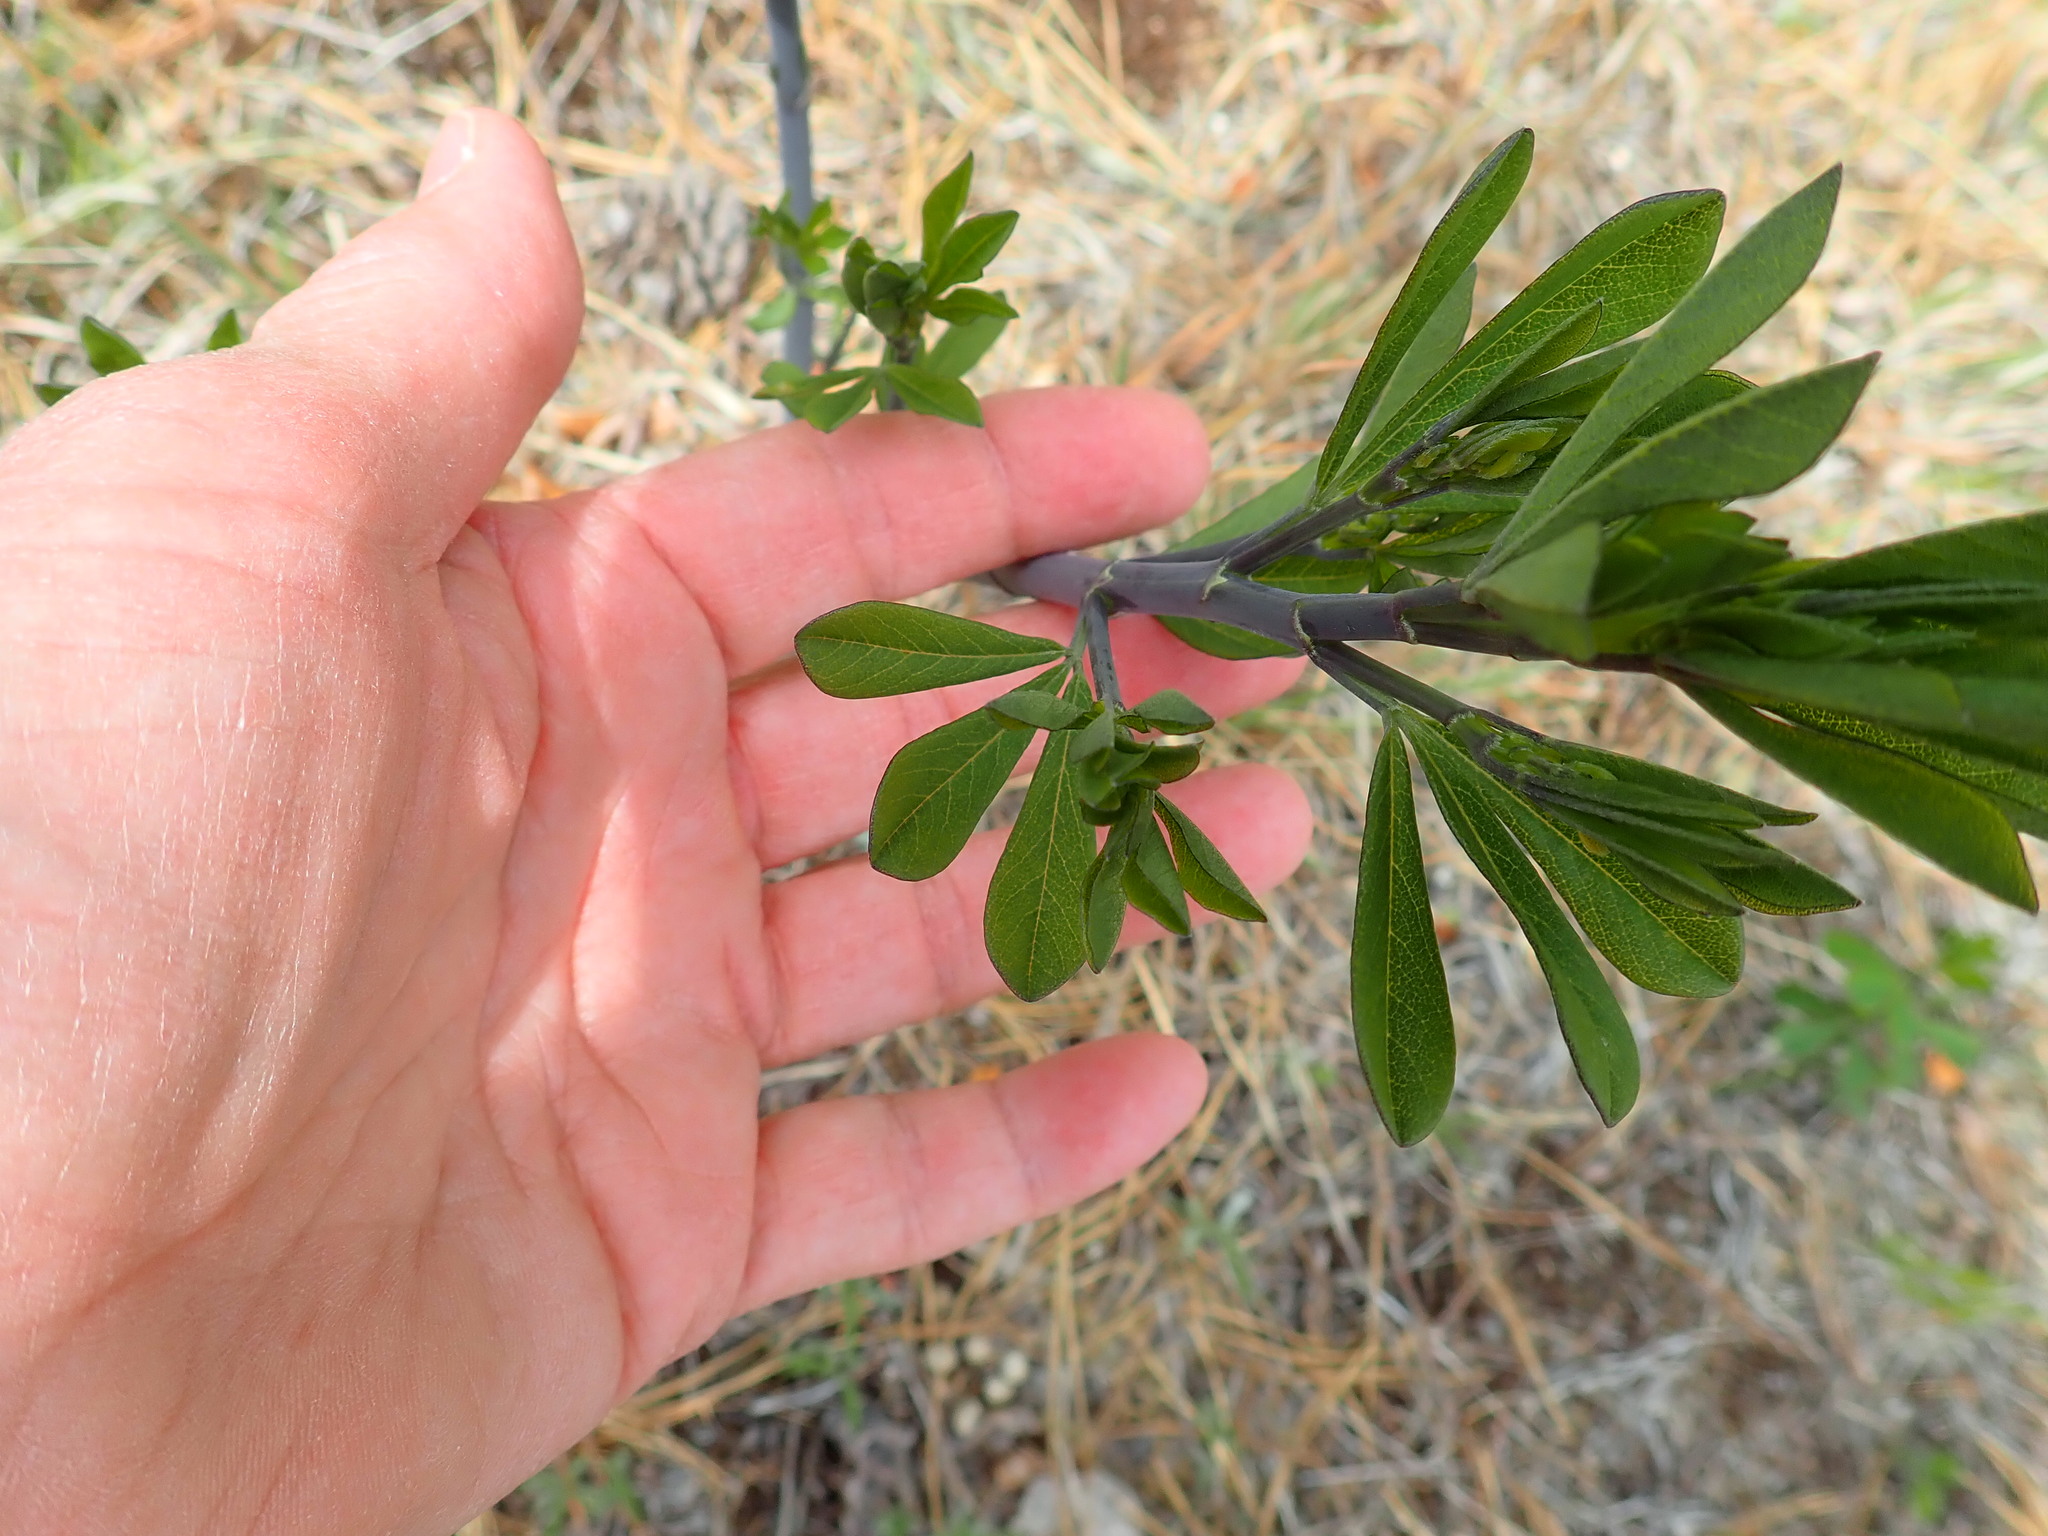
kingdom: Plantae
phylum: Tracheophyta
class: Magnoliopsida
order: Fabales
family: Fabaceae
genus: Baptisia
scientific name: Baptisia tinctoria
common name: Wild indigo
